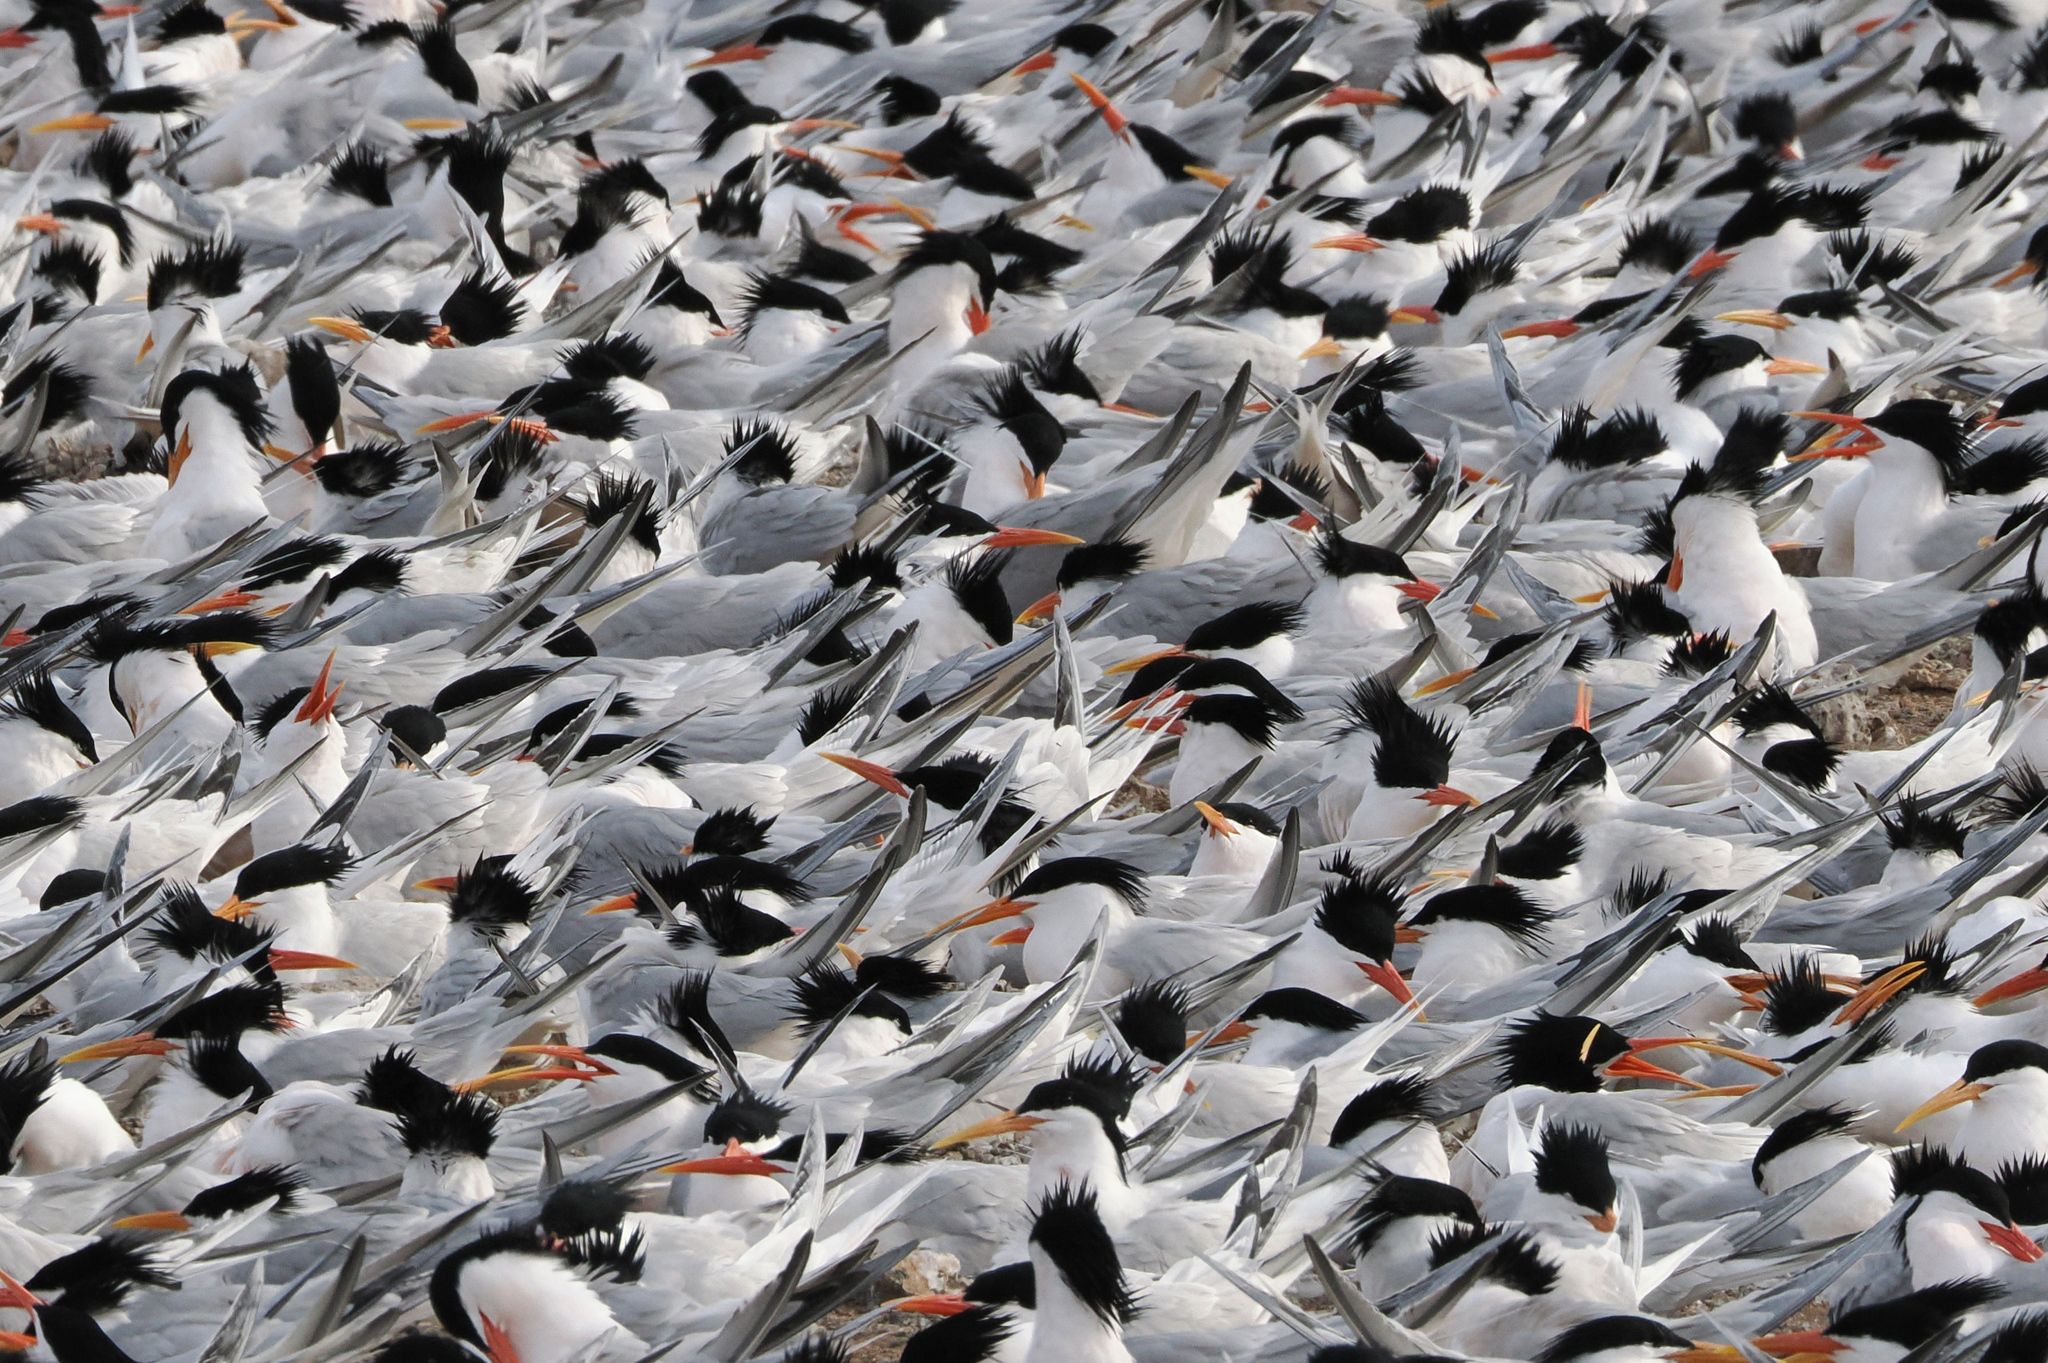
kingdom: Animalia
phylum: Chordata
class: Aves
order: Charadriiformes
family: Laridae
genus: Thalasseus
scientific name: Thalasseus elegans
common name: Elegant tern
